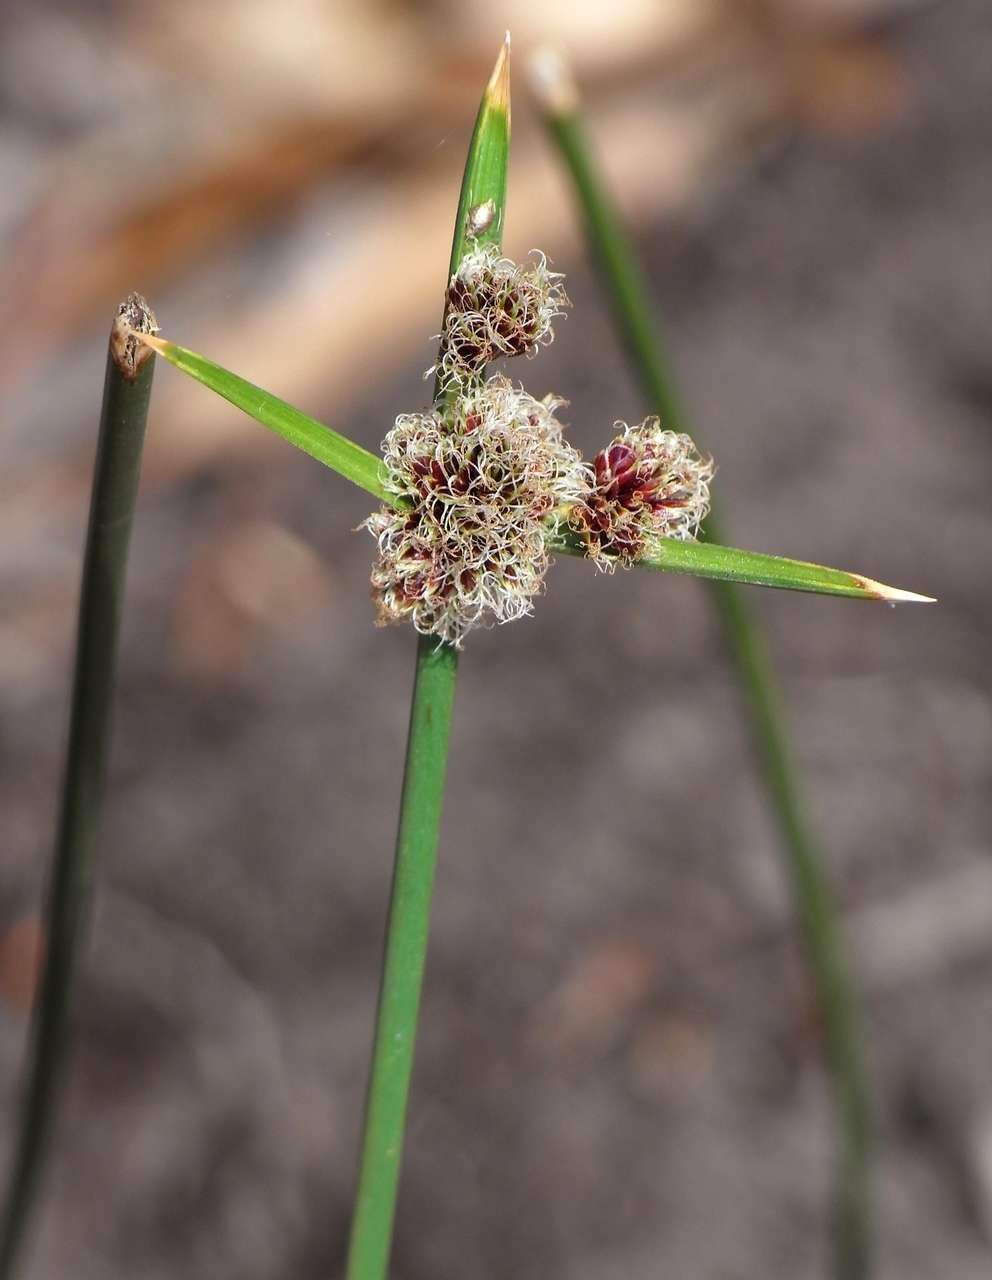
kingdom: Plantae
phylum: Tracheophyta
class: Liliopsida
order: Poales
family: Cyperaceae
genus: Cyperus
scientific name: Cyperus gymnocaulos
